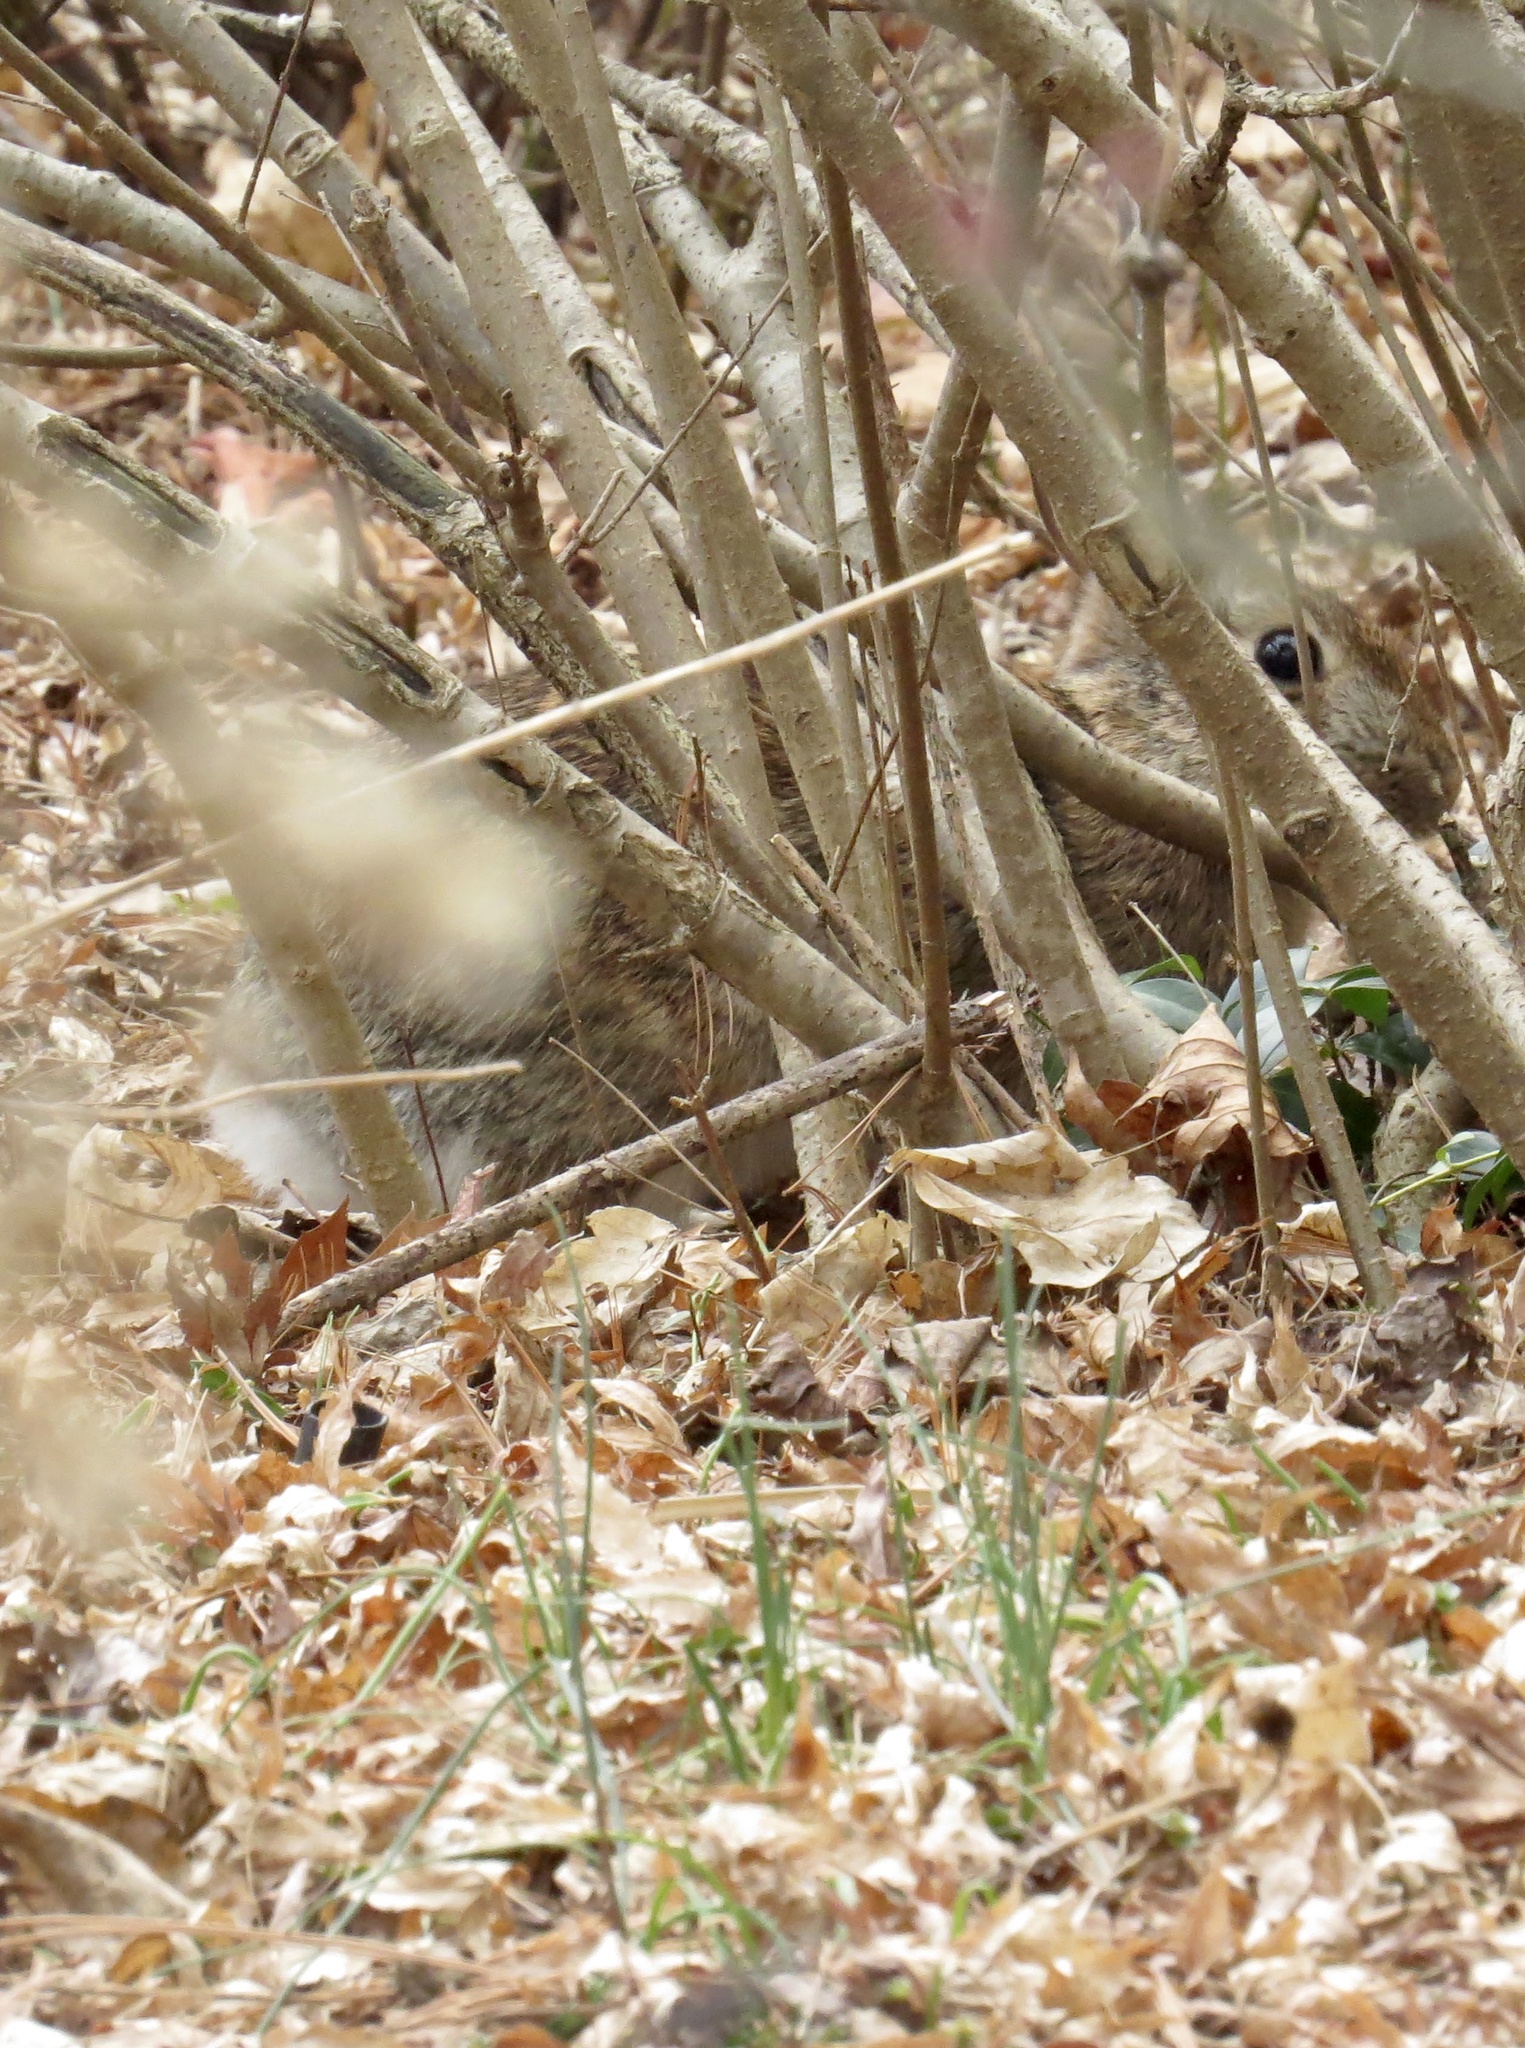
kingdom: Animalia
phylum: Chordata
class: Mammalia
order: Lagomorpha
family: Leporidae
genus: Sylvilagus
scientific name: Sylvilagus floridanus
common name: Eastern cottontail
